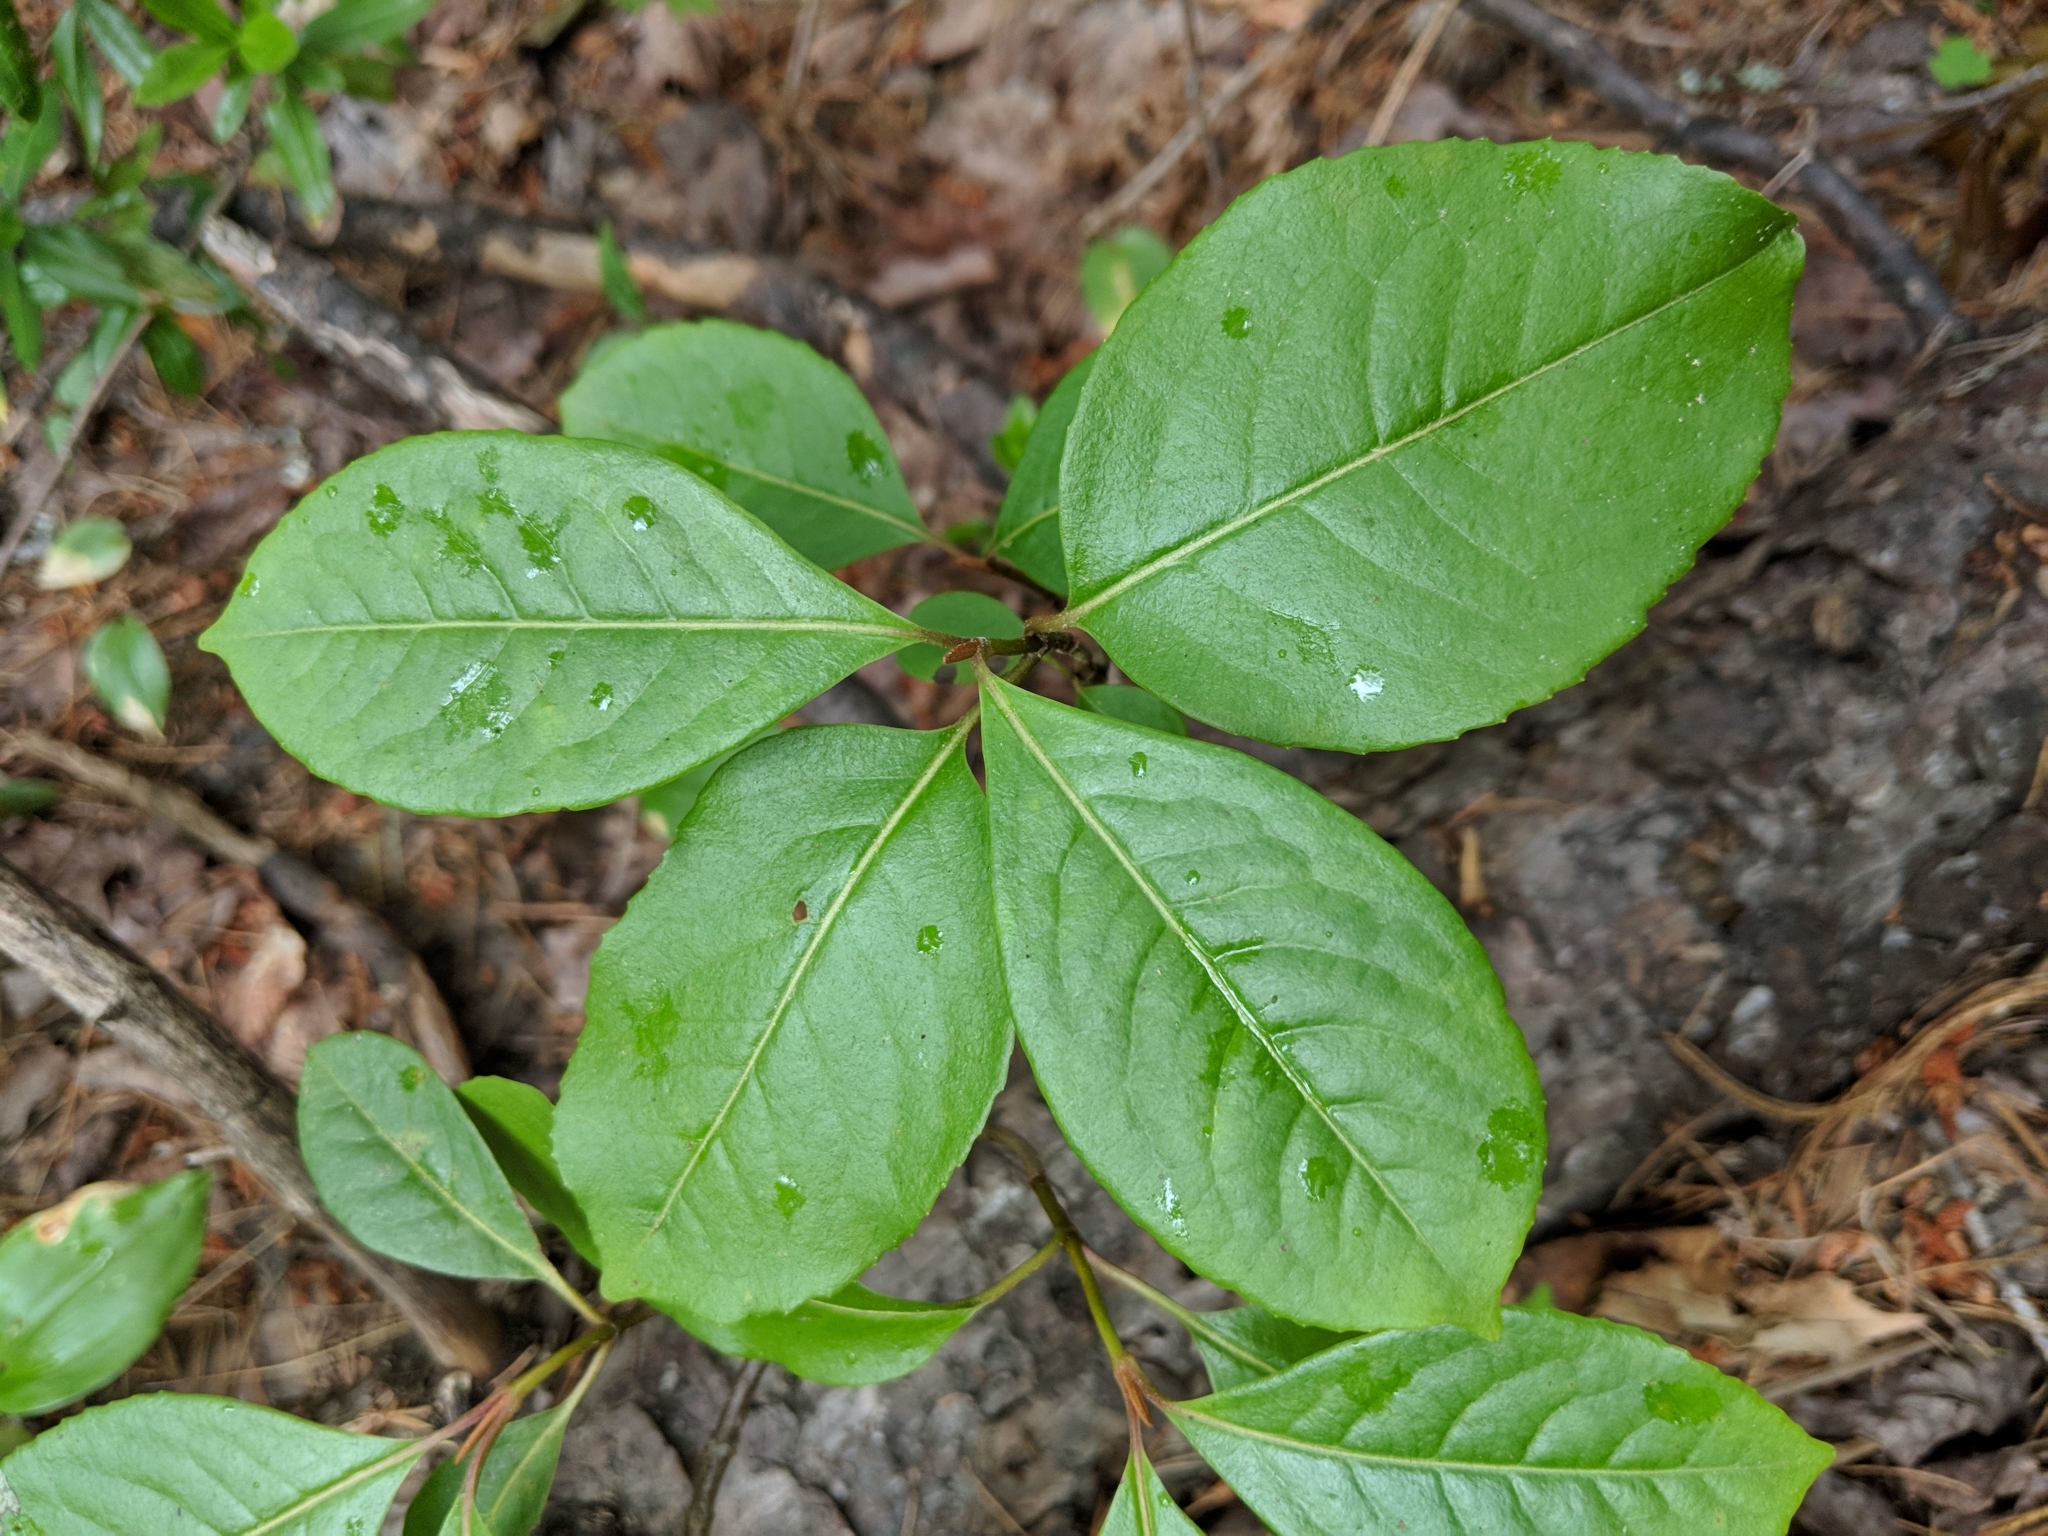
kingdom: Plantae
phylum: Tracheophyta
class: Magnoliopsida
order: Dipsacales
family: Viburnaceae
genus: Viburnum
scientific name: Viburnum cassinoides
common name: Swamp haw
